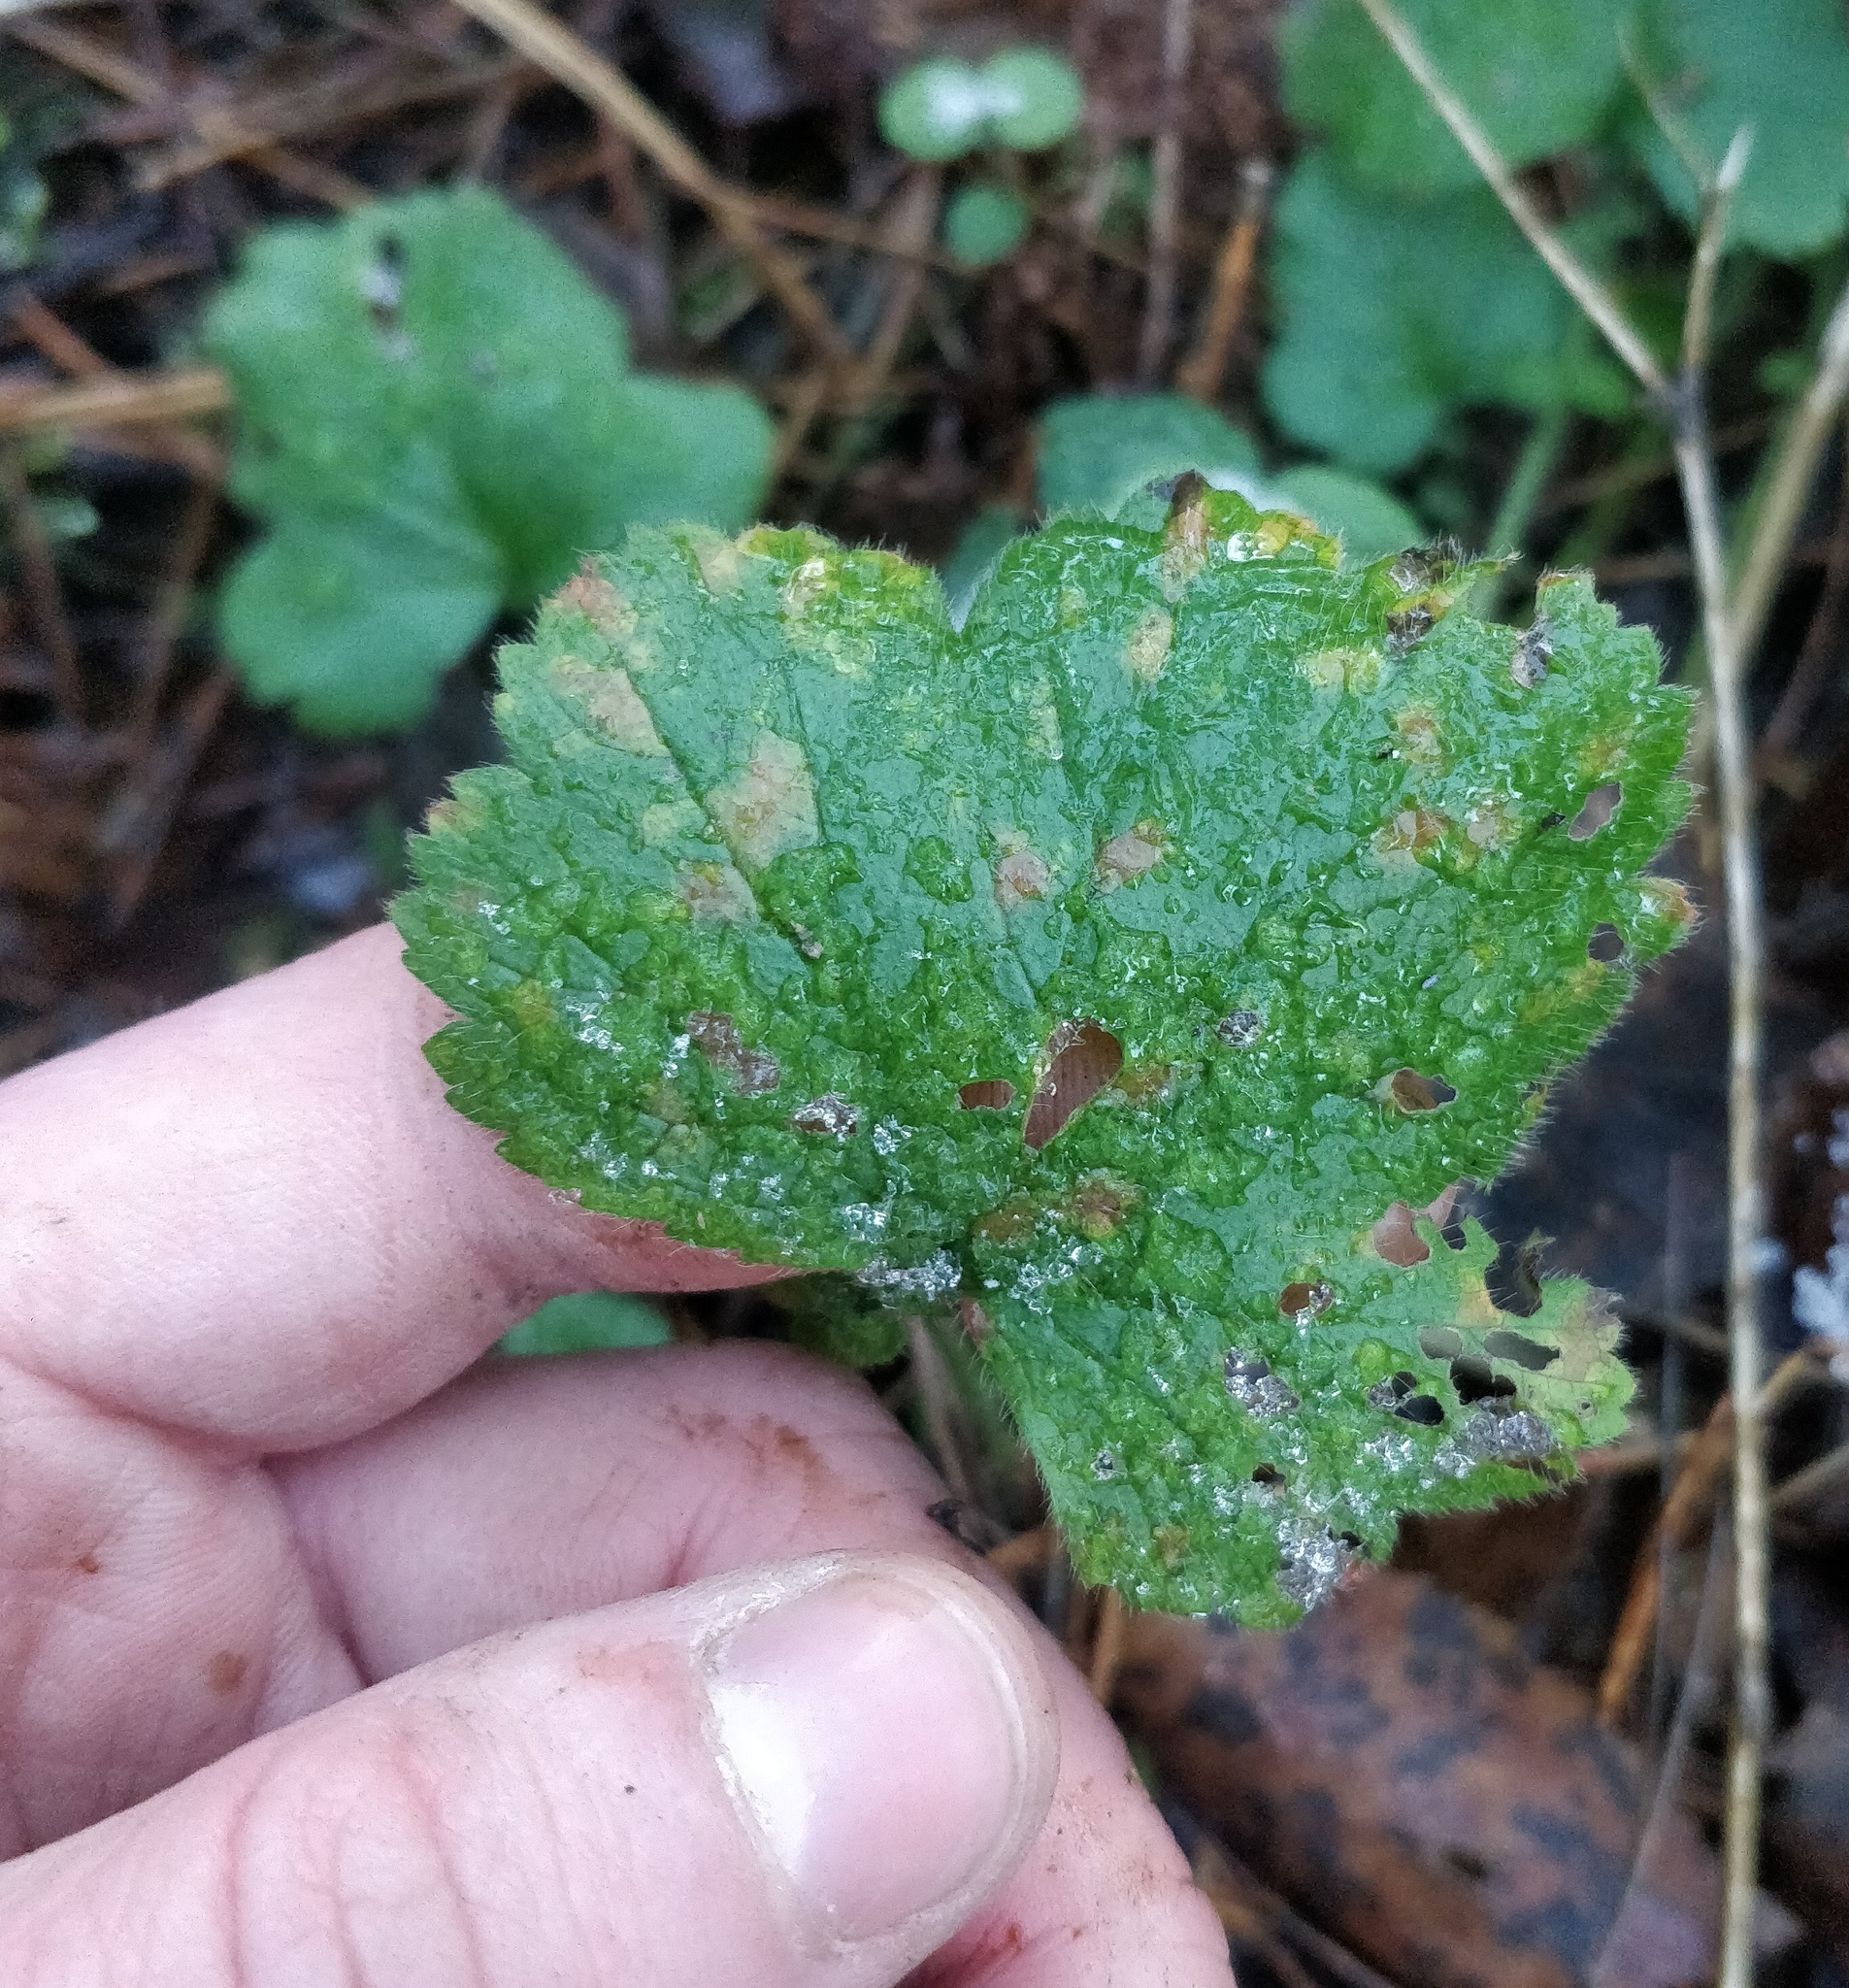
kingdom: Plantae
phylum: Tracheophyta
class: Magnoliopsida
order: Rosales
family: Rosaceae
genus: Geum
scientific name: Geum
